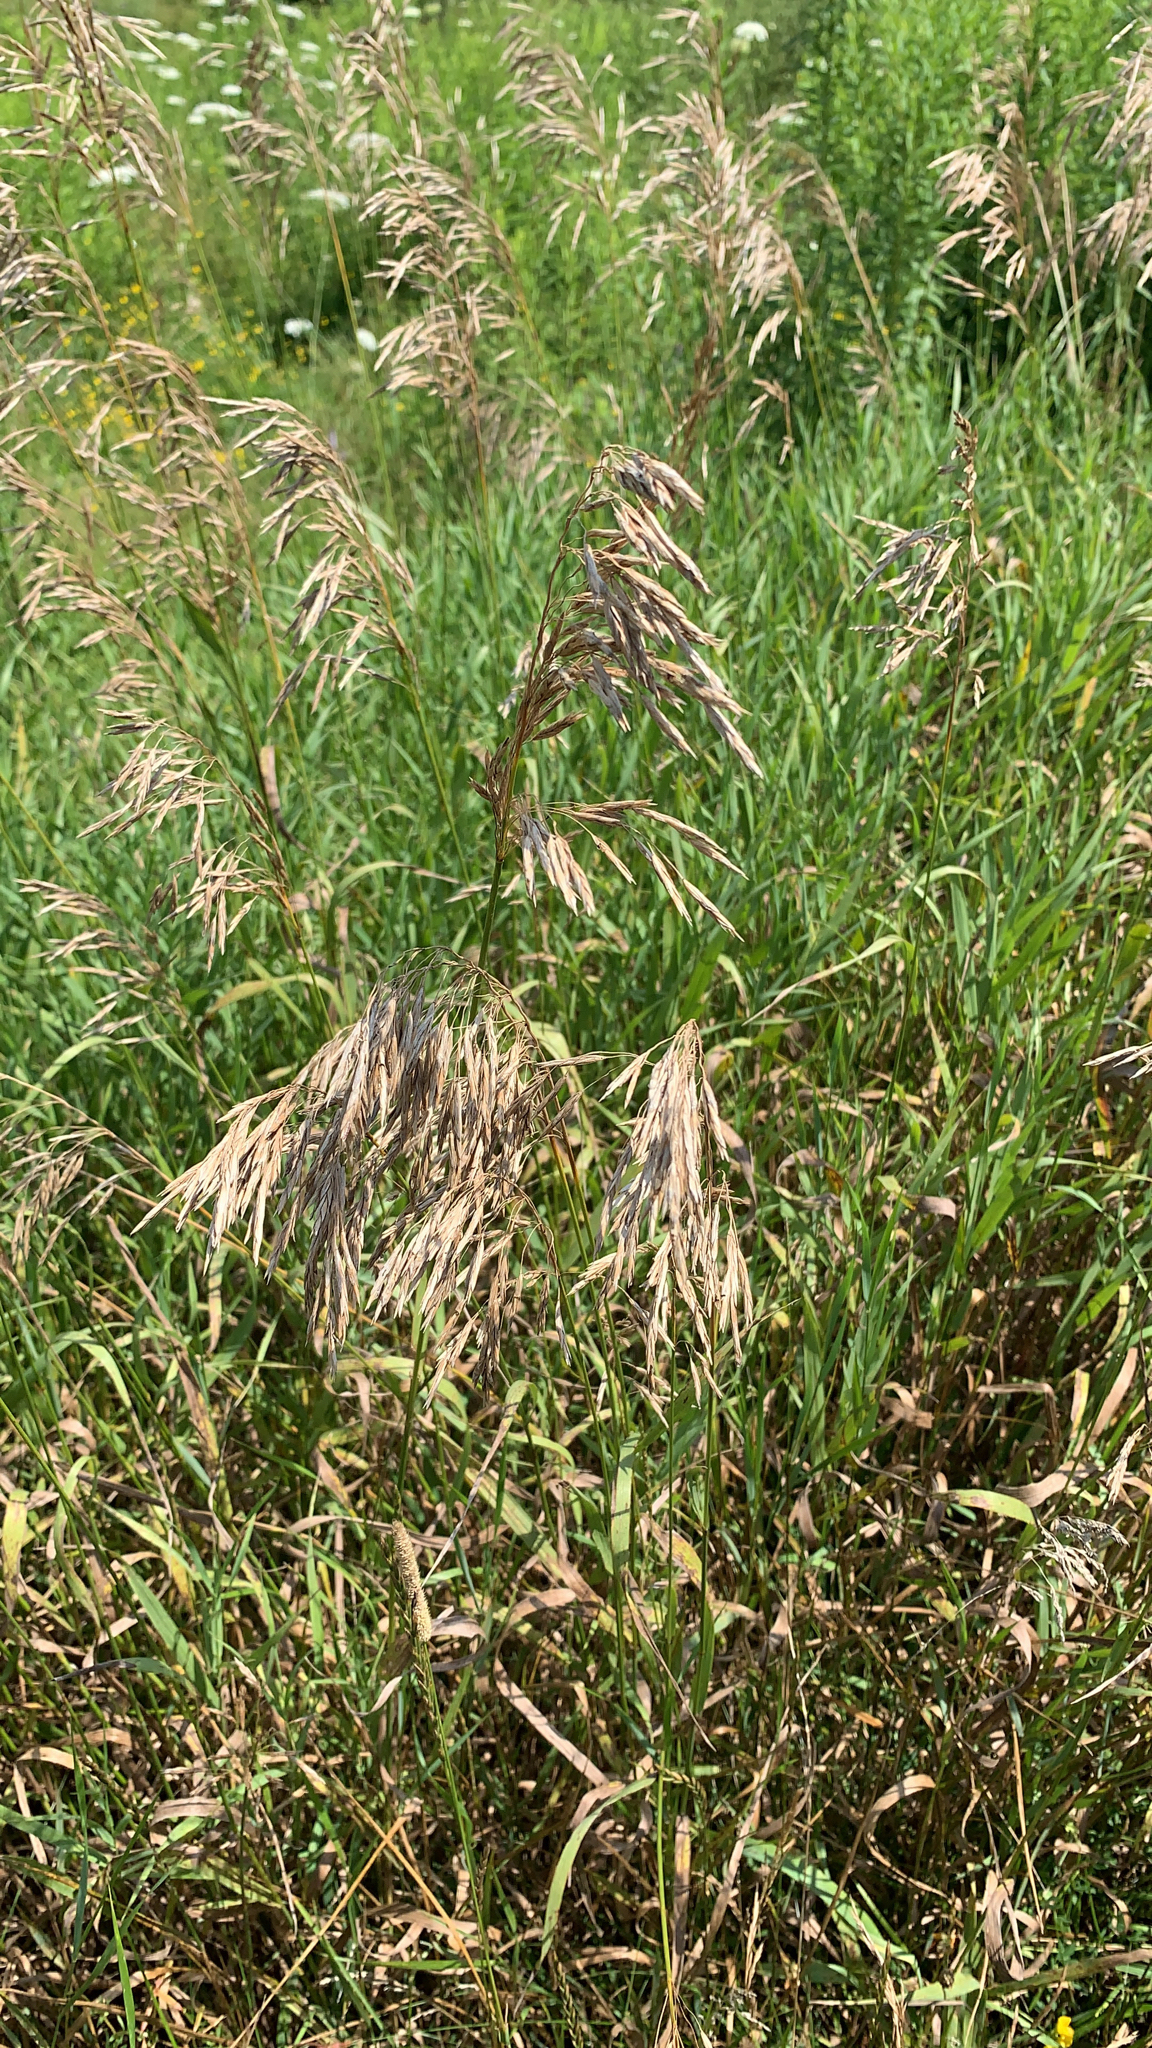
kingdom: Plantae
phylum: Tracheophyta
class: Liliopsida
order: Poales
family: Poaceae
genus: Bromus
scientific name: Bromus inermis
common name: Smooth brome
